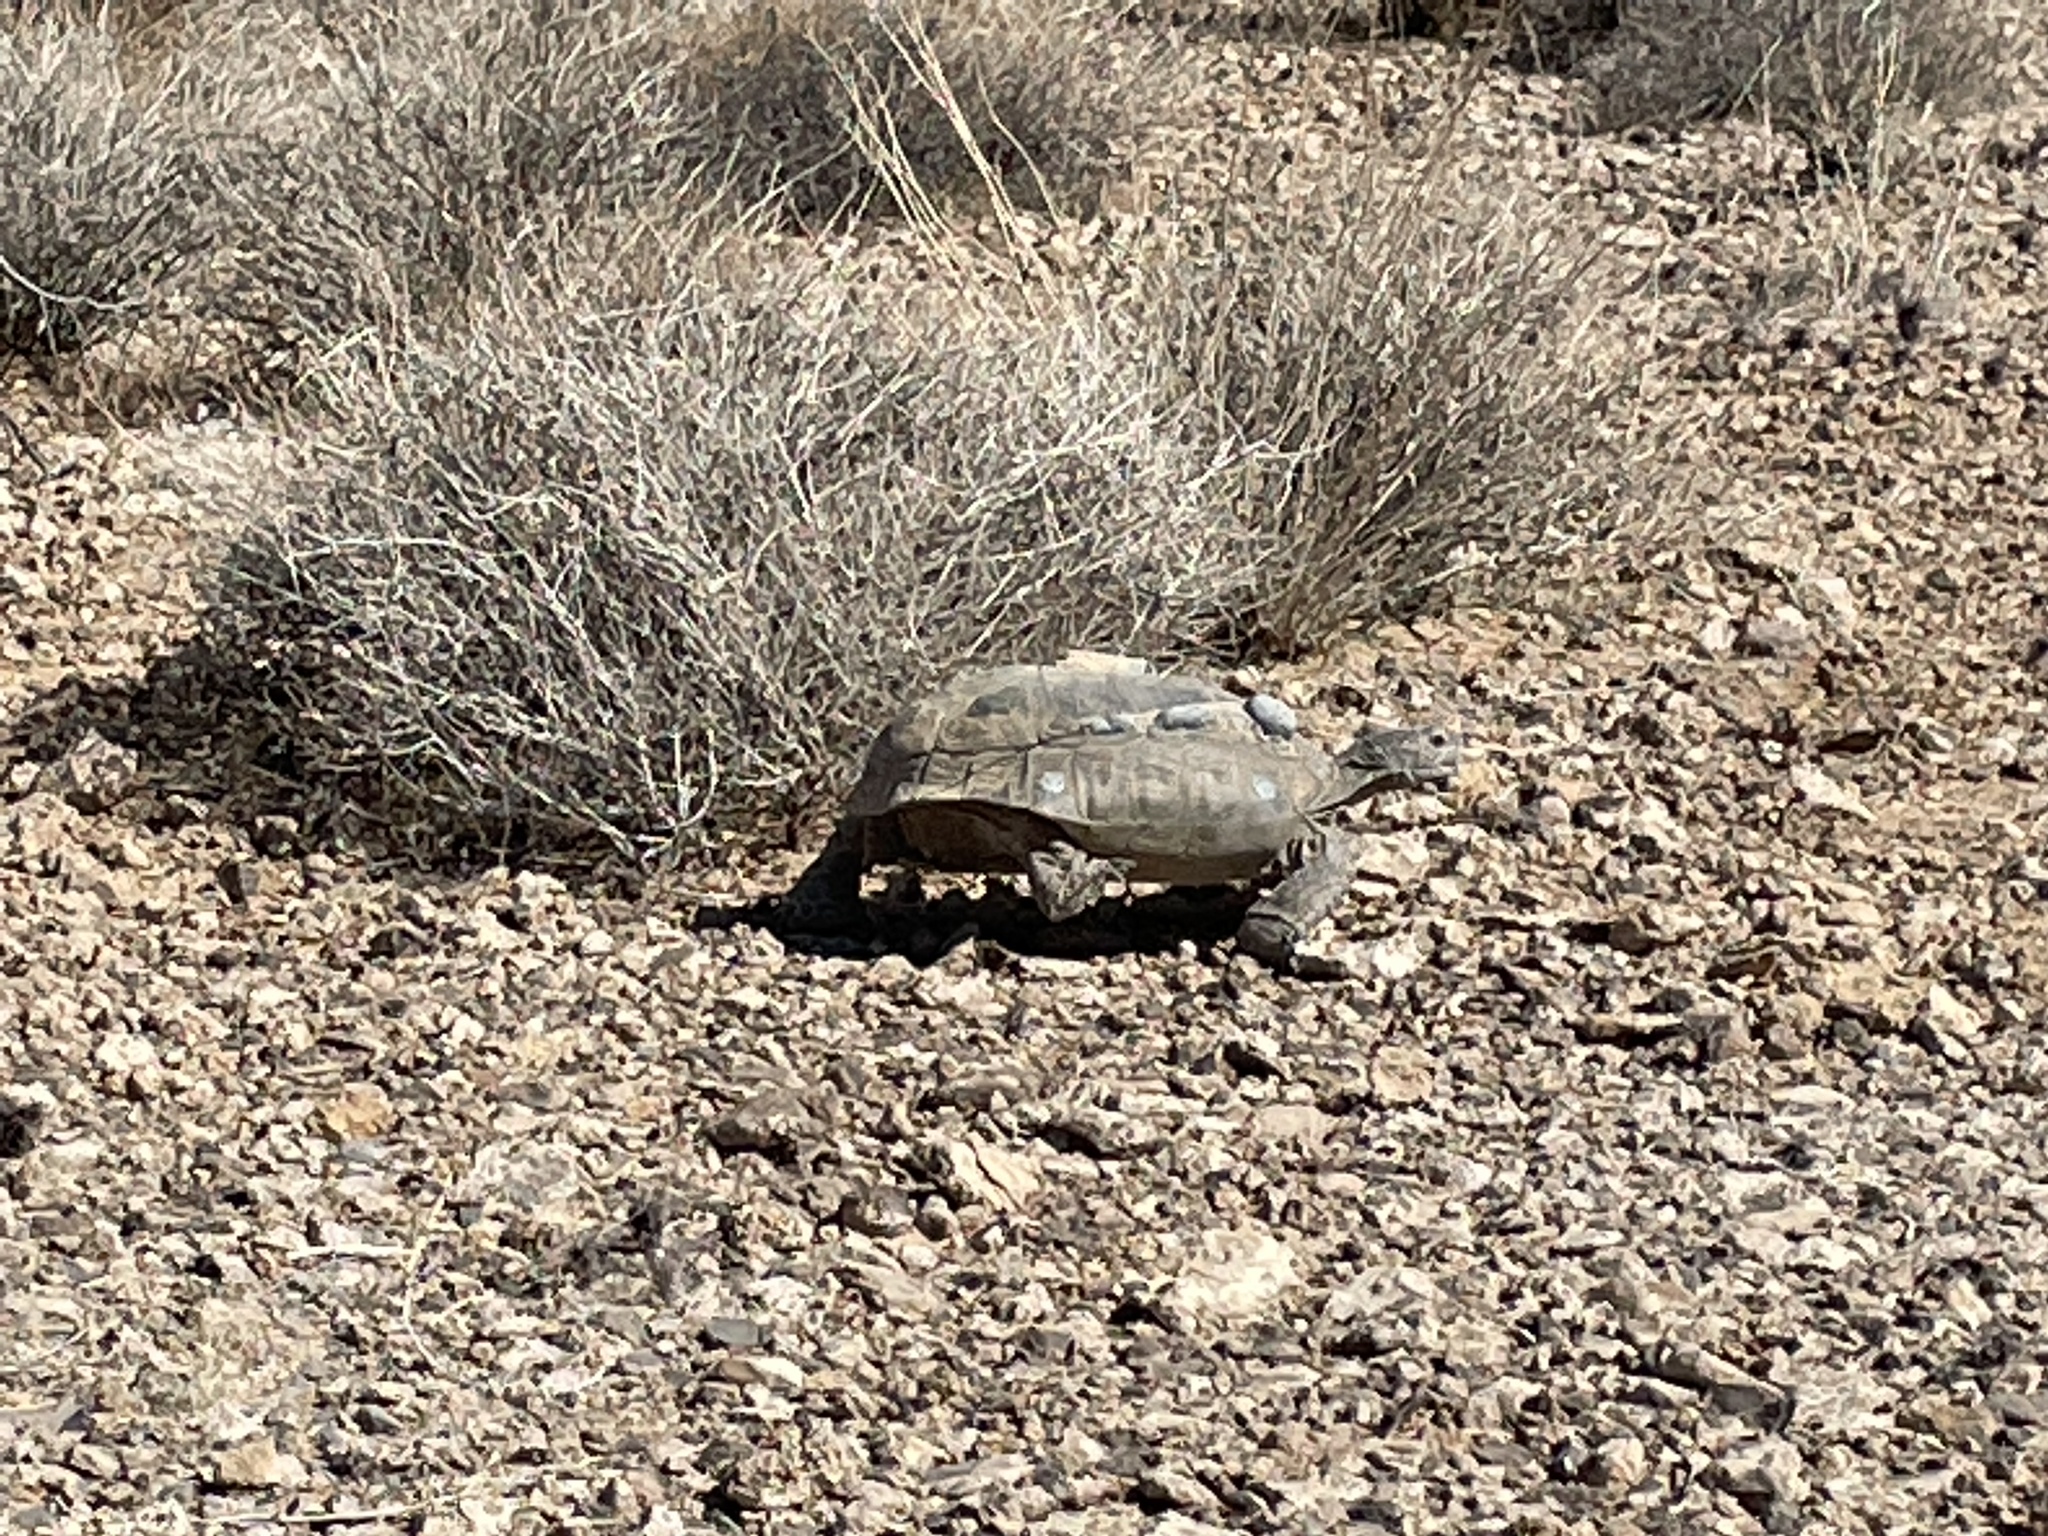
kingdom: Animalia
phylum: Chordata
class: Testudines
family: Testudinidae
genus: Gopherus
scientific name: Gopherus agassizii
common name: Mojave desert tortoise
